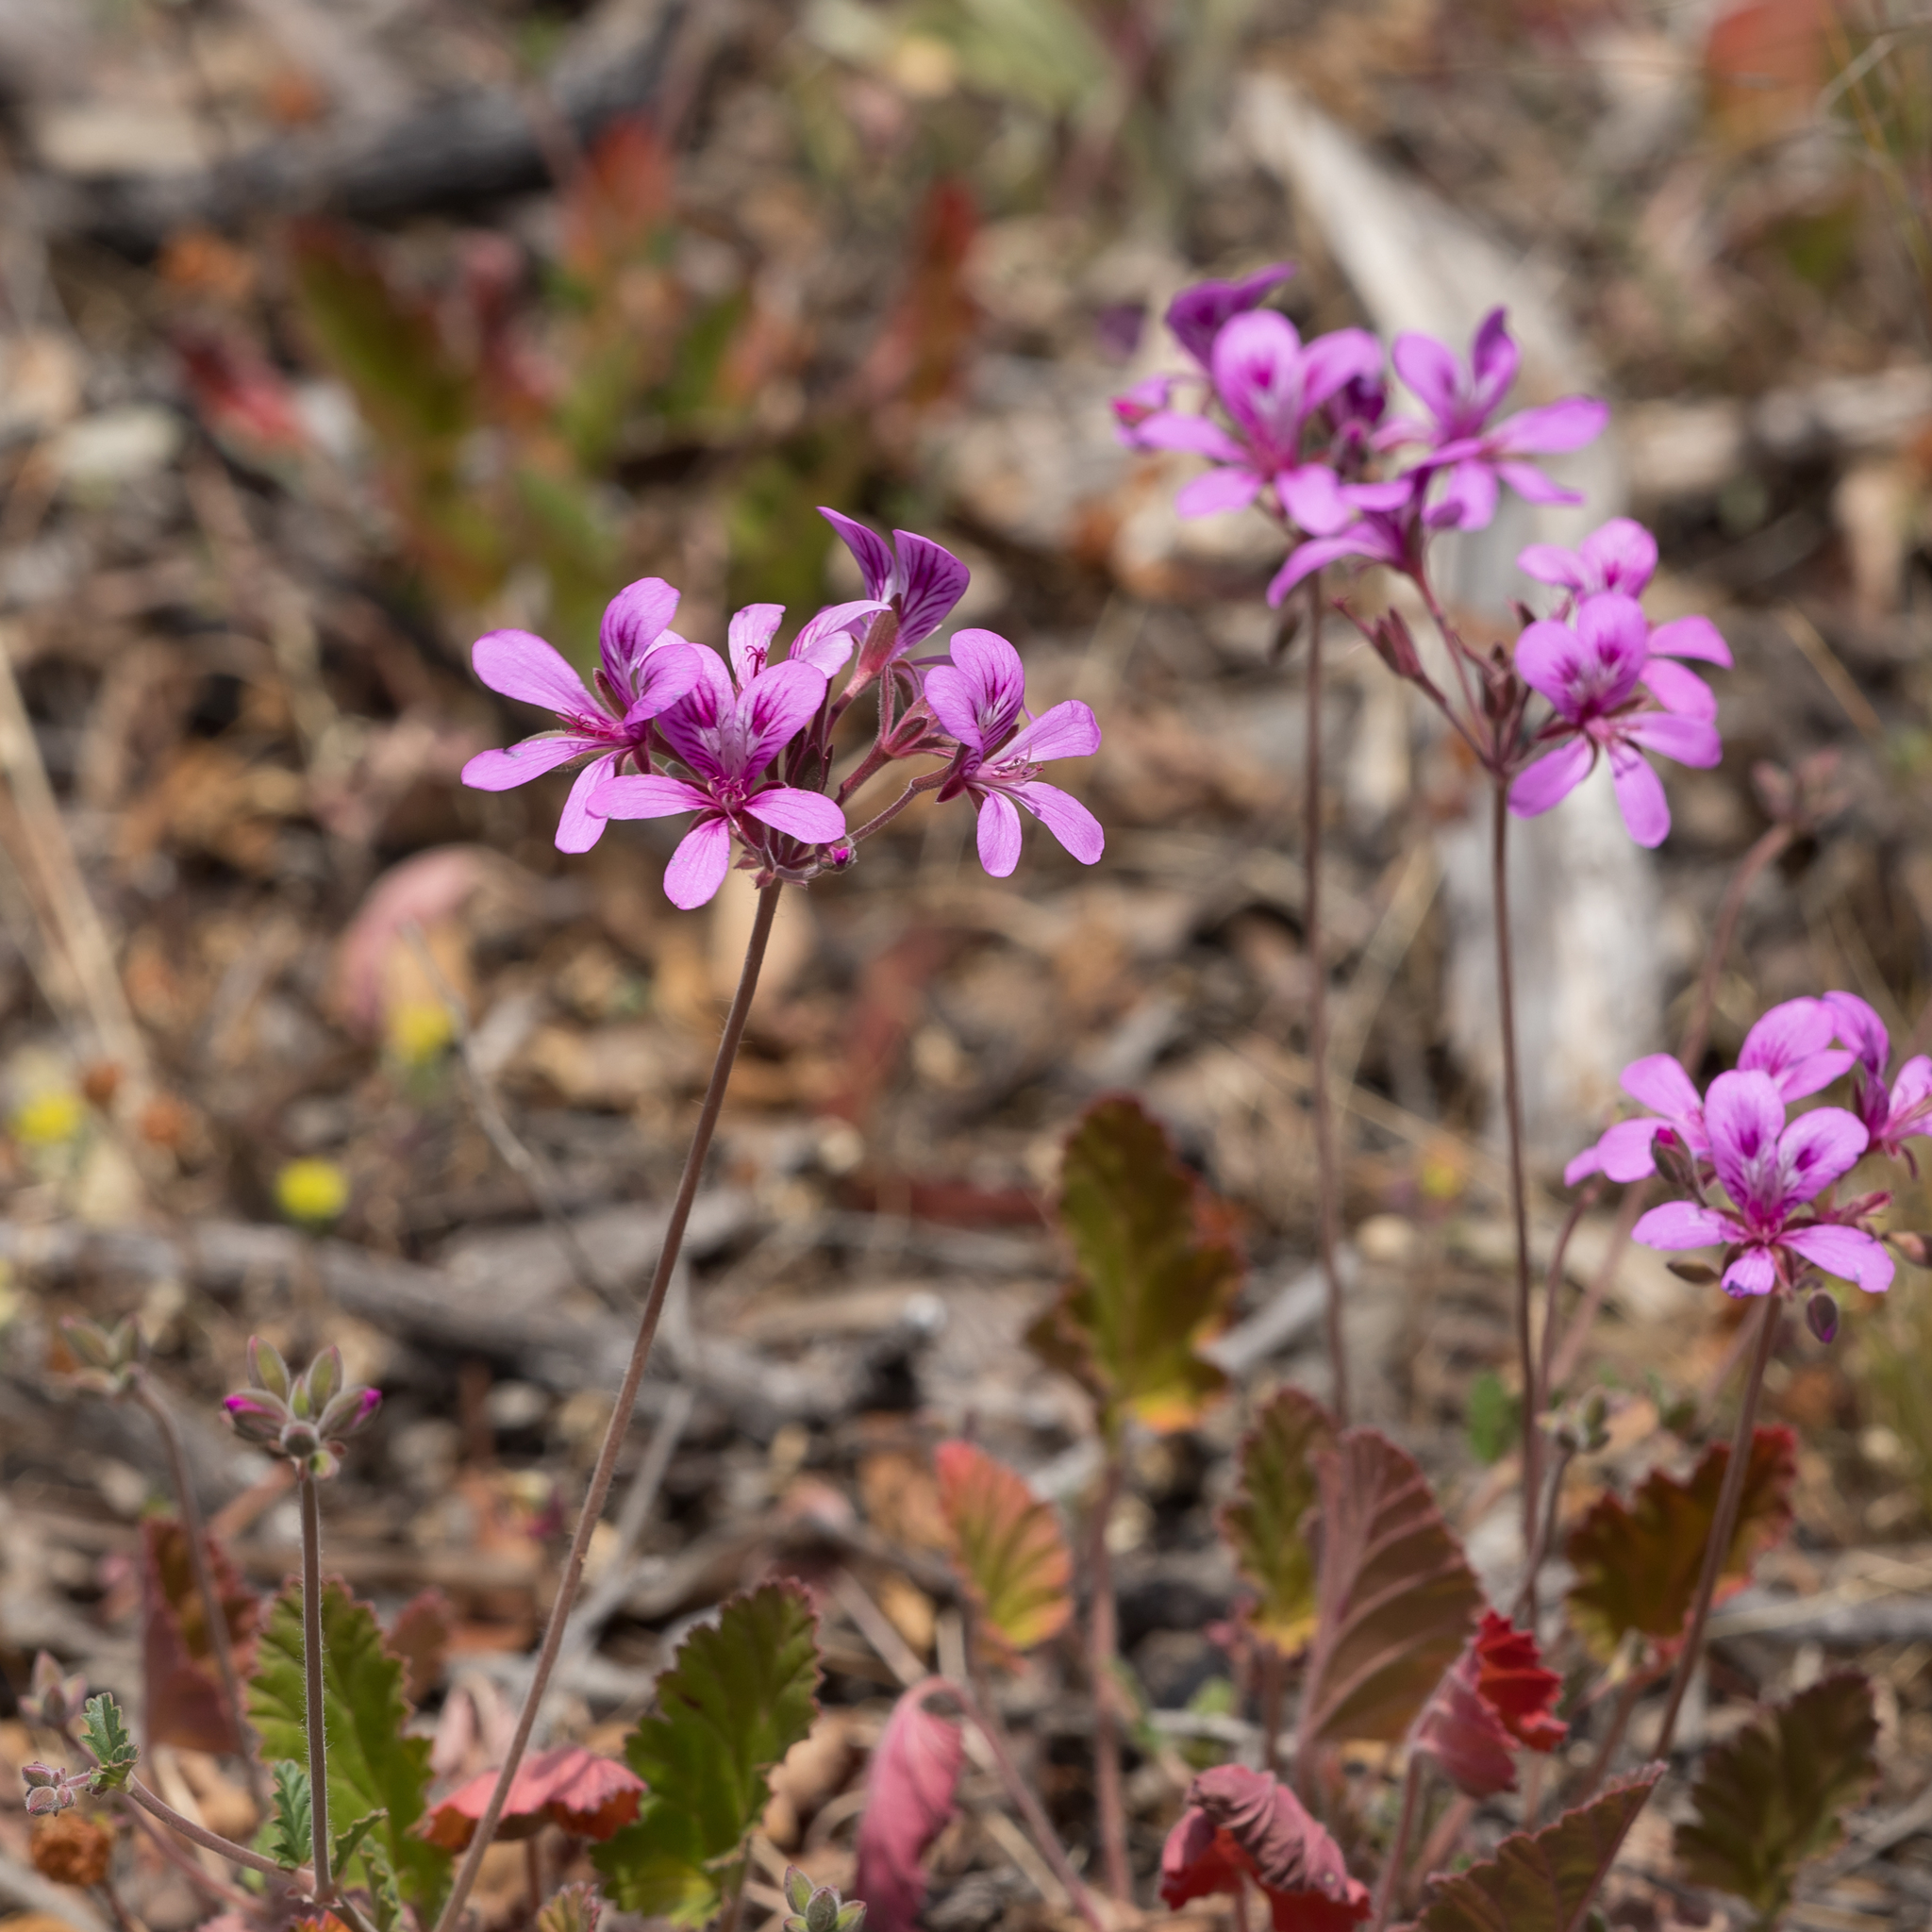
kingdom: Plantae
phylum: Tracheophyta
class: Magnoliopsida
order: Geraniales
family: Geraniaceae
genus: Pelargonium
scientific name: Pelargonium rodneyanum
